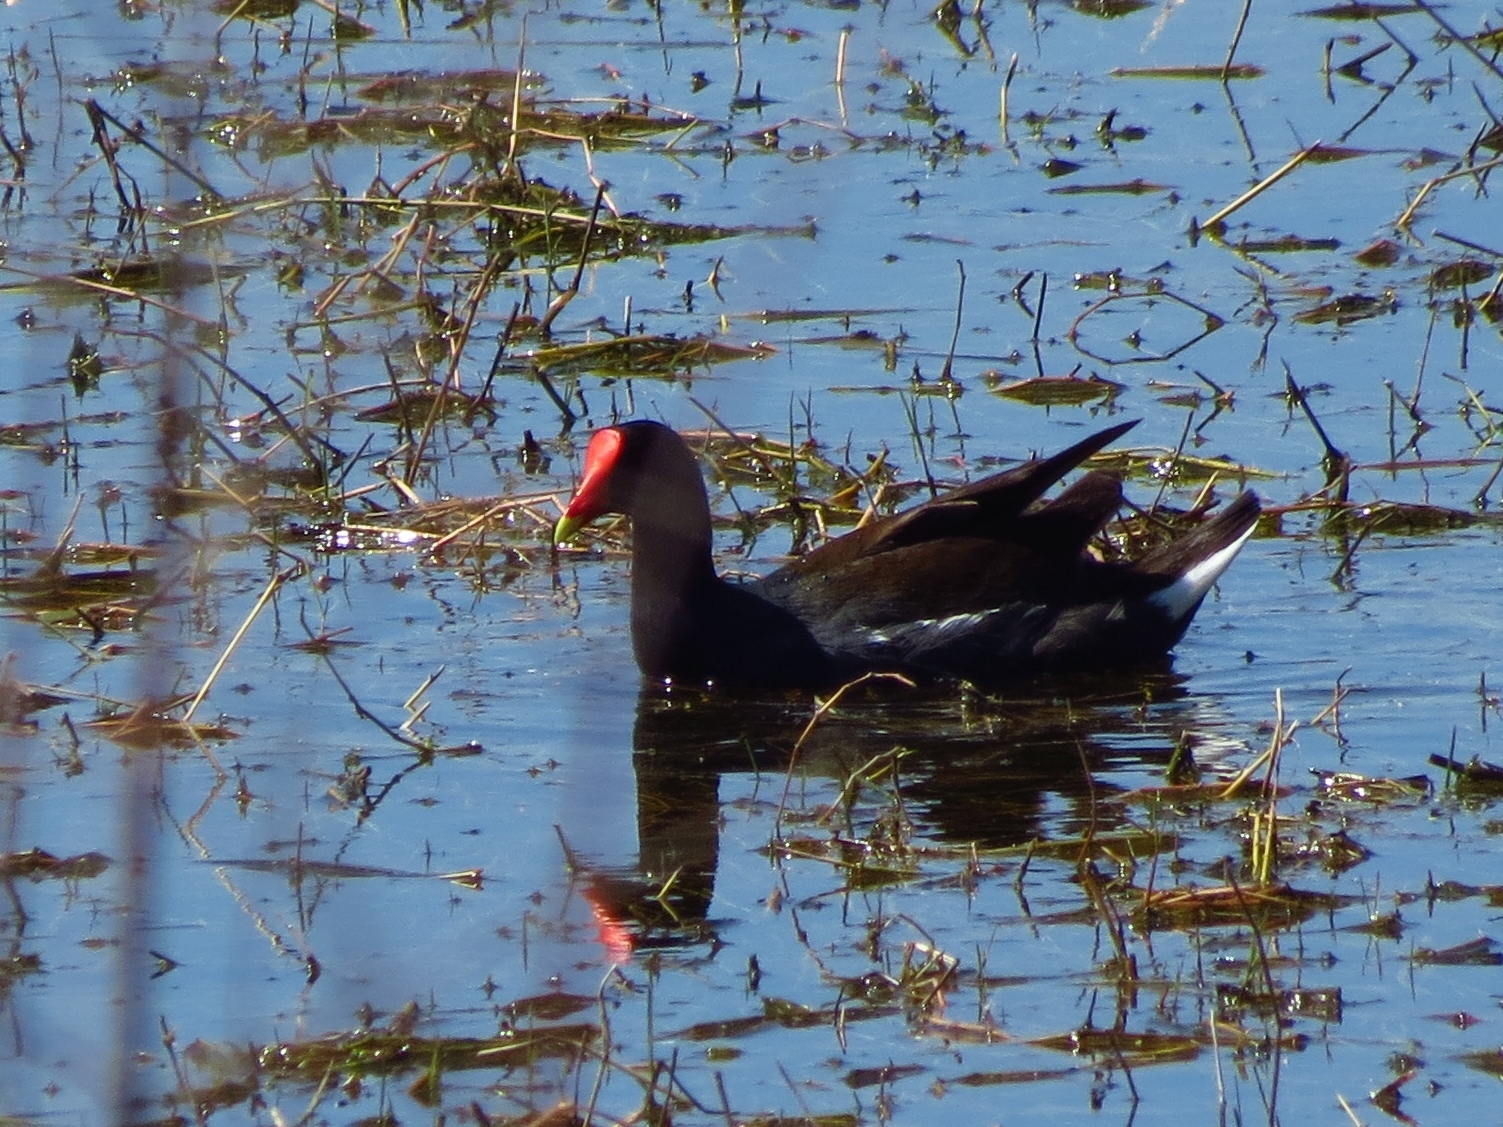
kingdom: Animalia
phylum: Chordata
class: Aves
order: Gruiformes
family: Rallidae
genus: Gallinula
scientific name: Gallinula chloropus
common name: Common moorhen
